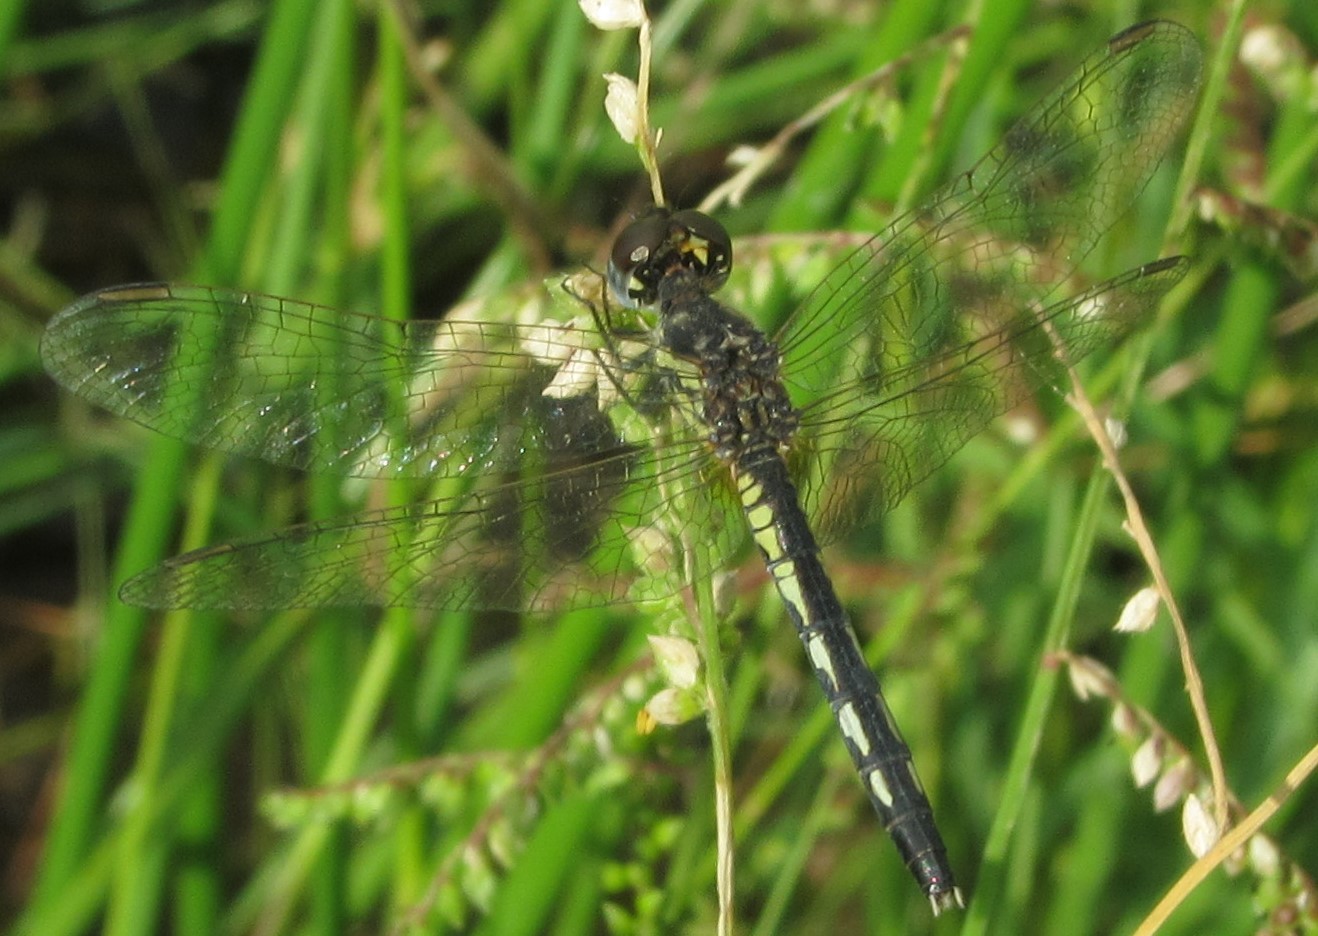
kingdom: Animalia
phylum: Arthropoda
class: Insecta
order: Odonata
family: Libellulidae
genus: Diplacodes
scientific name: Diplacodes lefebvrii
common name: Black percher
